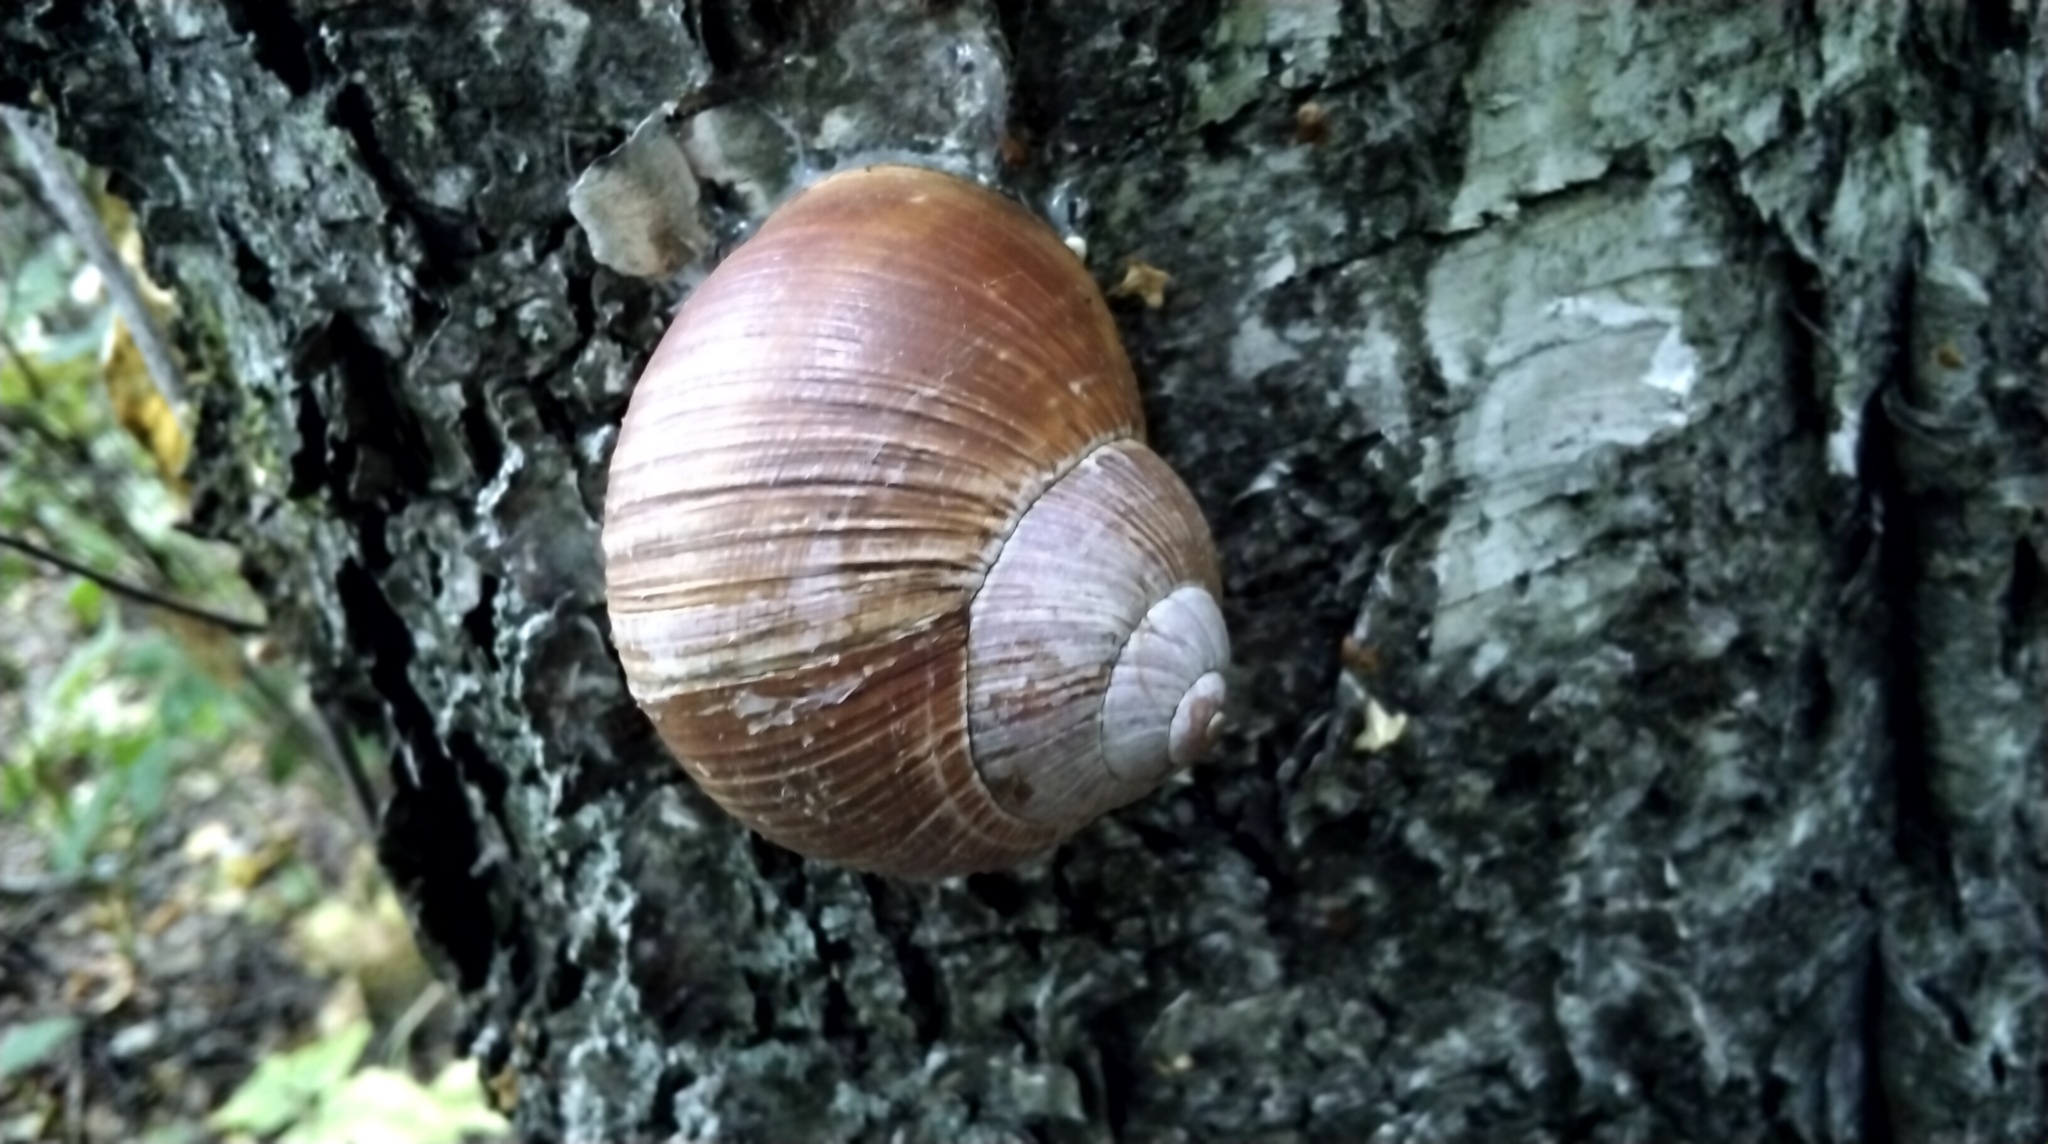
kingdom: Animalia
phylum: Mollusca
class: Gastropoda
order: Stylommatophora
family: Helicidae
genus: Helix
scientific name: Helix pomatia
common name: Roman snail
